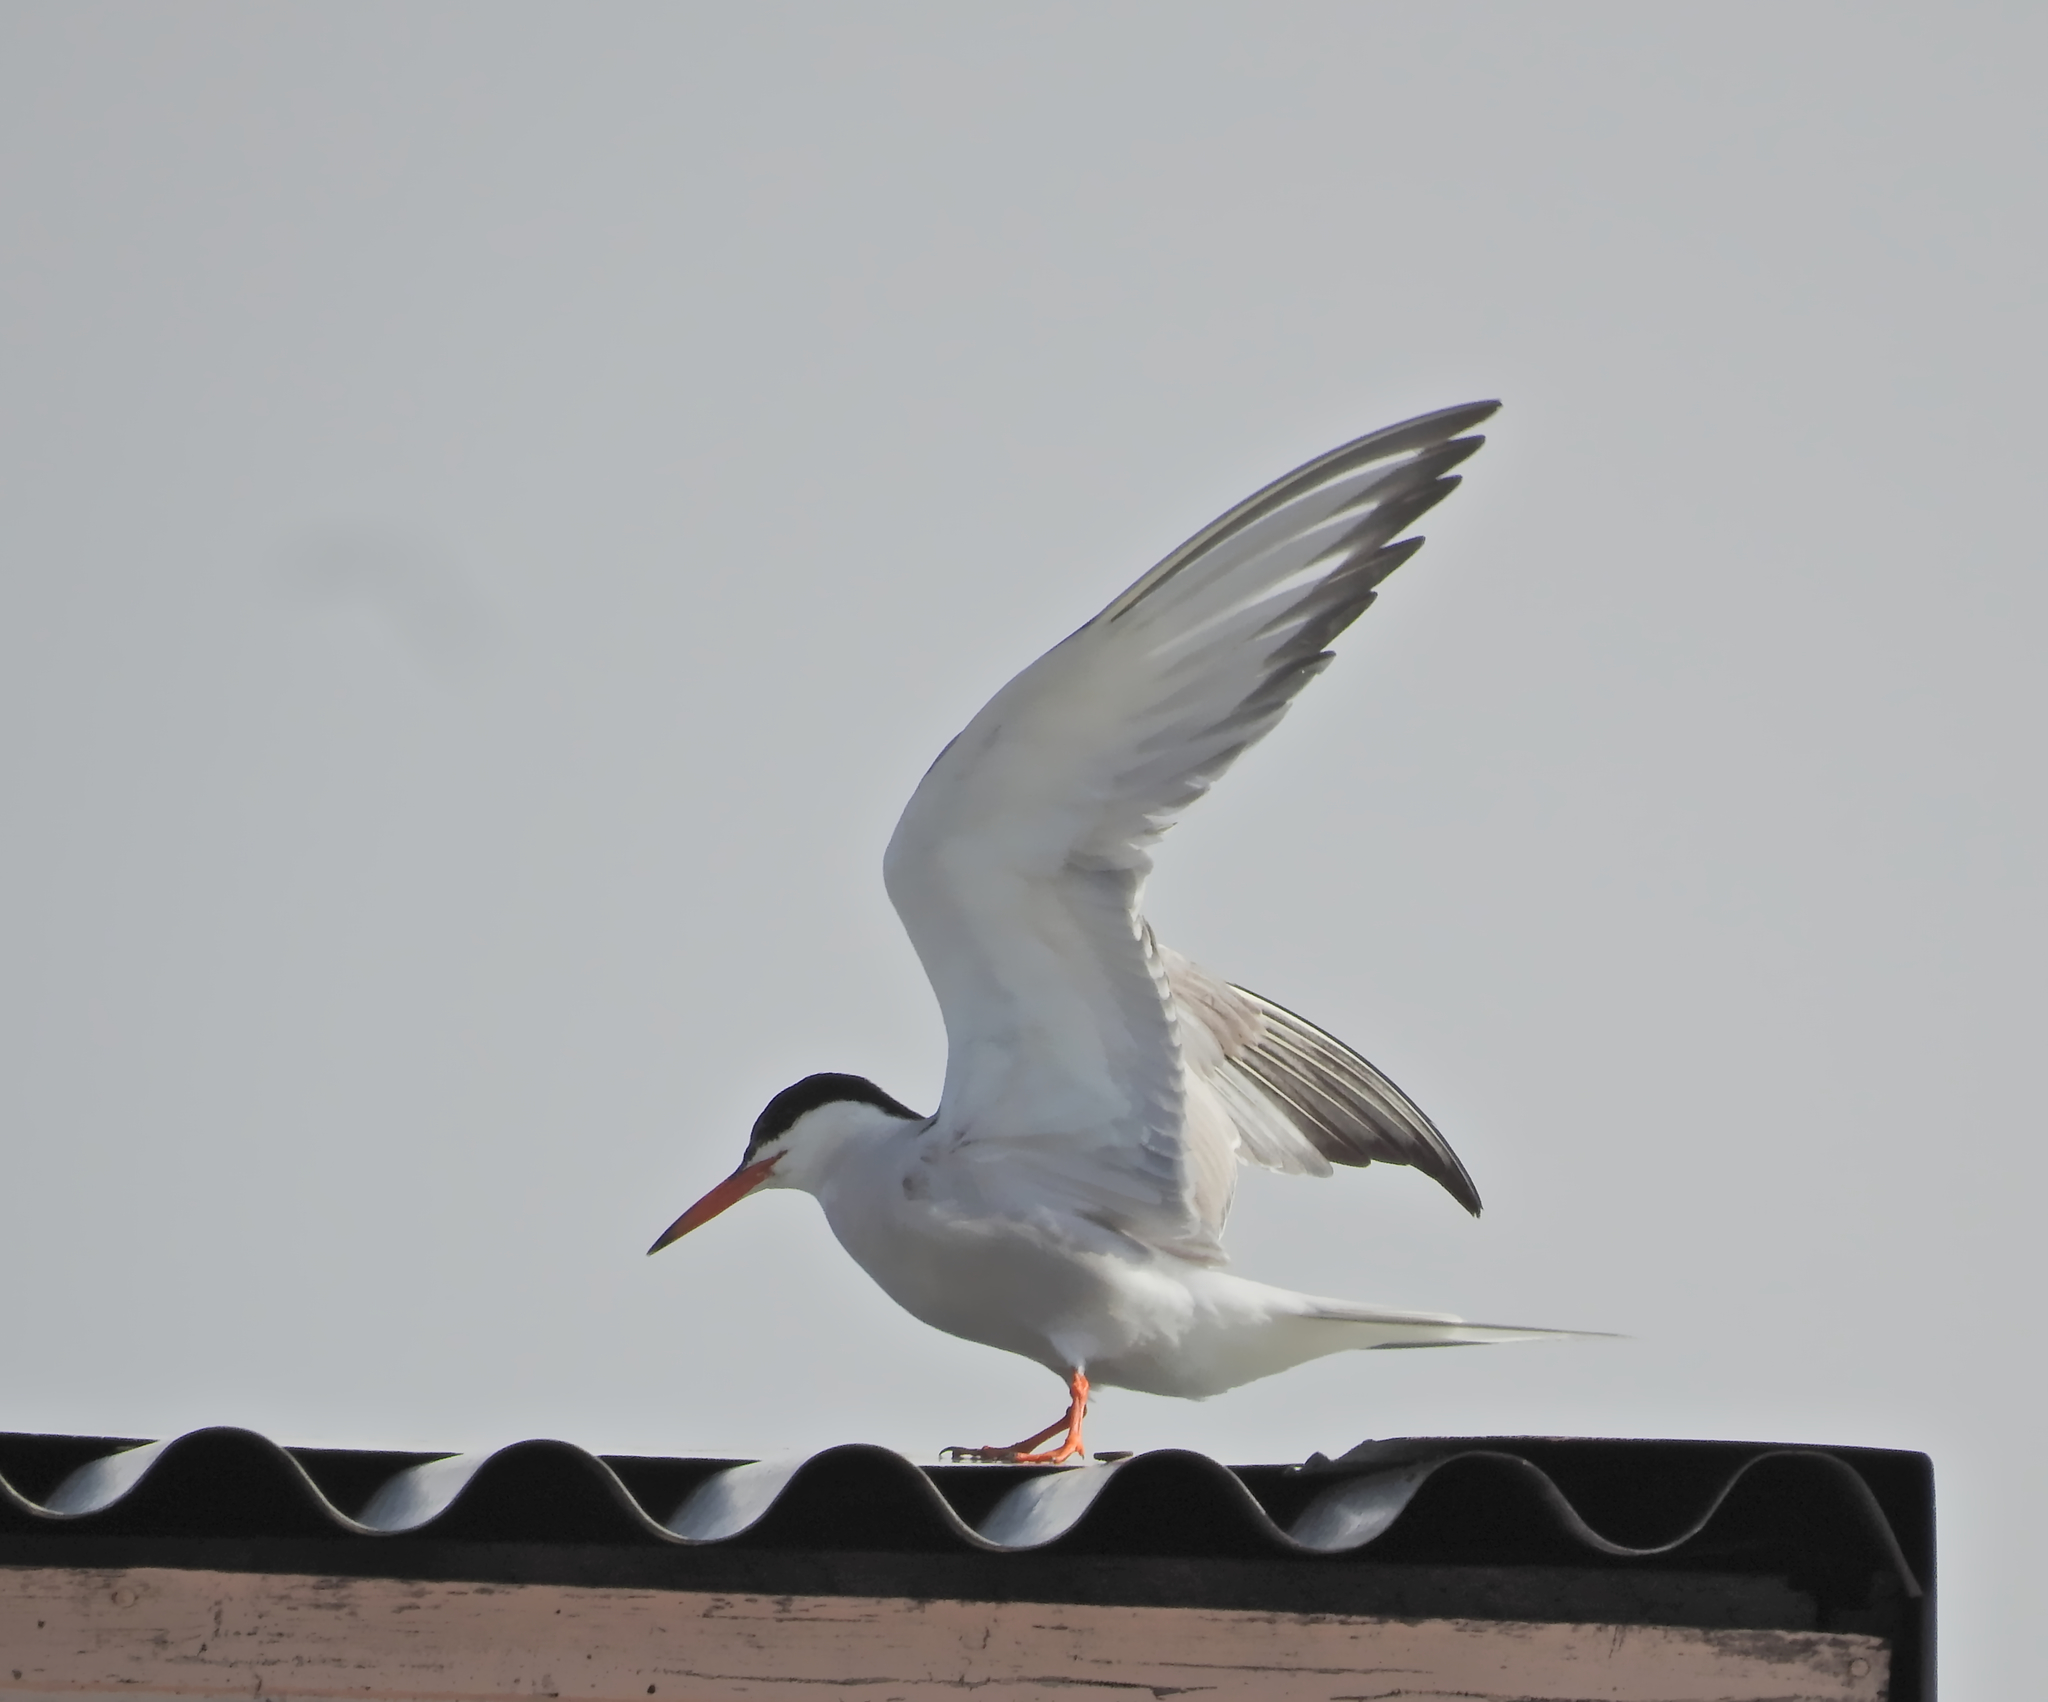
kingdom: Animalia
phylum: Chordata
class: Aves
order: Charadriiformes
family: Laridae
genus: Sterna
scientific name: Sterna hirundo
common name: Common tern
